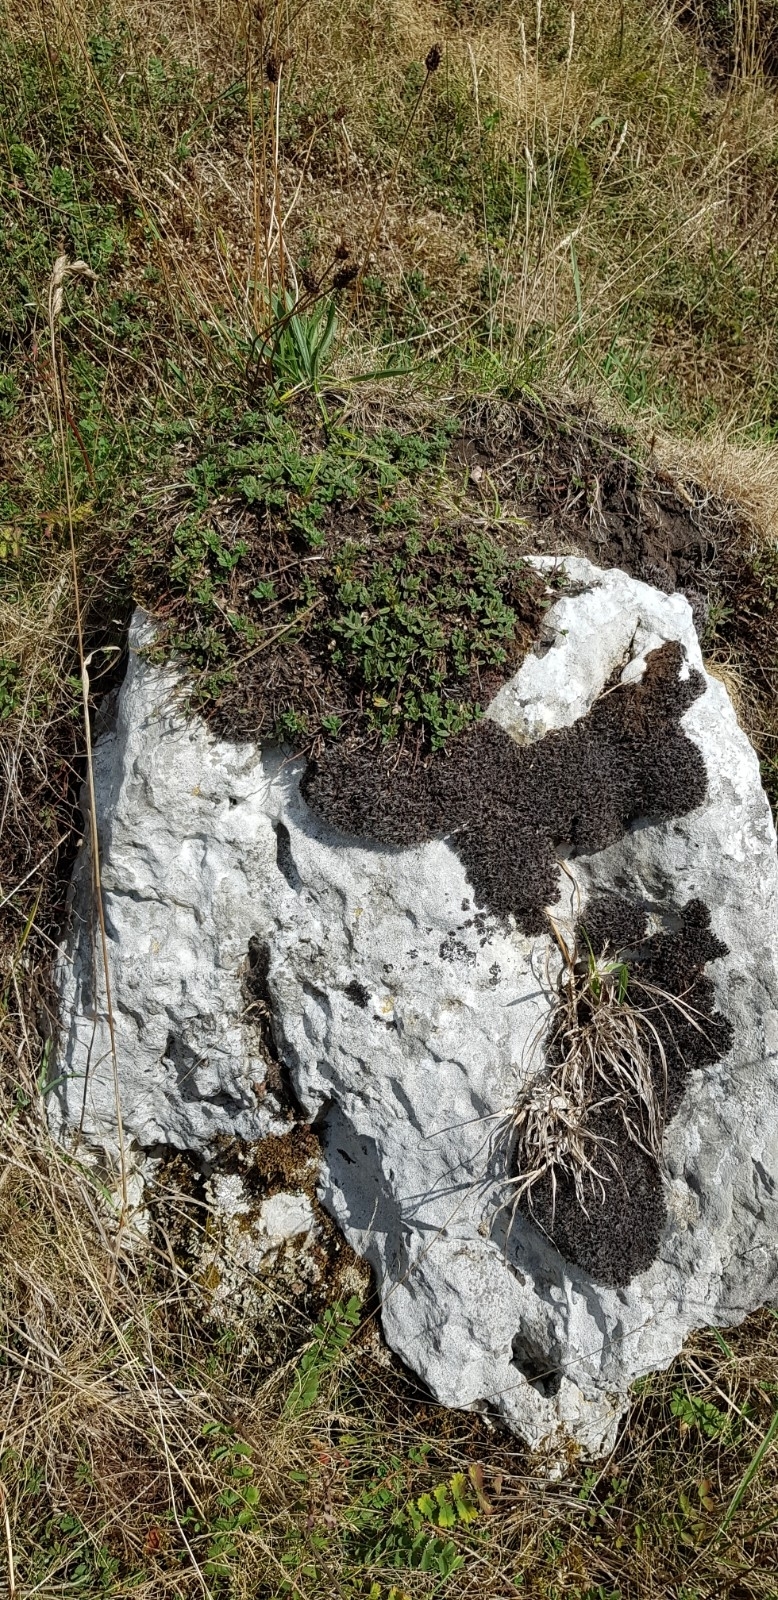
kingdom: Plantae
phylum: Bryophyta
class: Bryopsida
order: Pottiales
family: Pottiaceae
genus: Syntrichia
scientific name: Syntrichia ruralis
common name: Sidewalk screw moss
